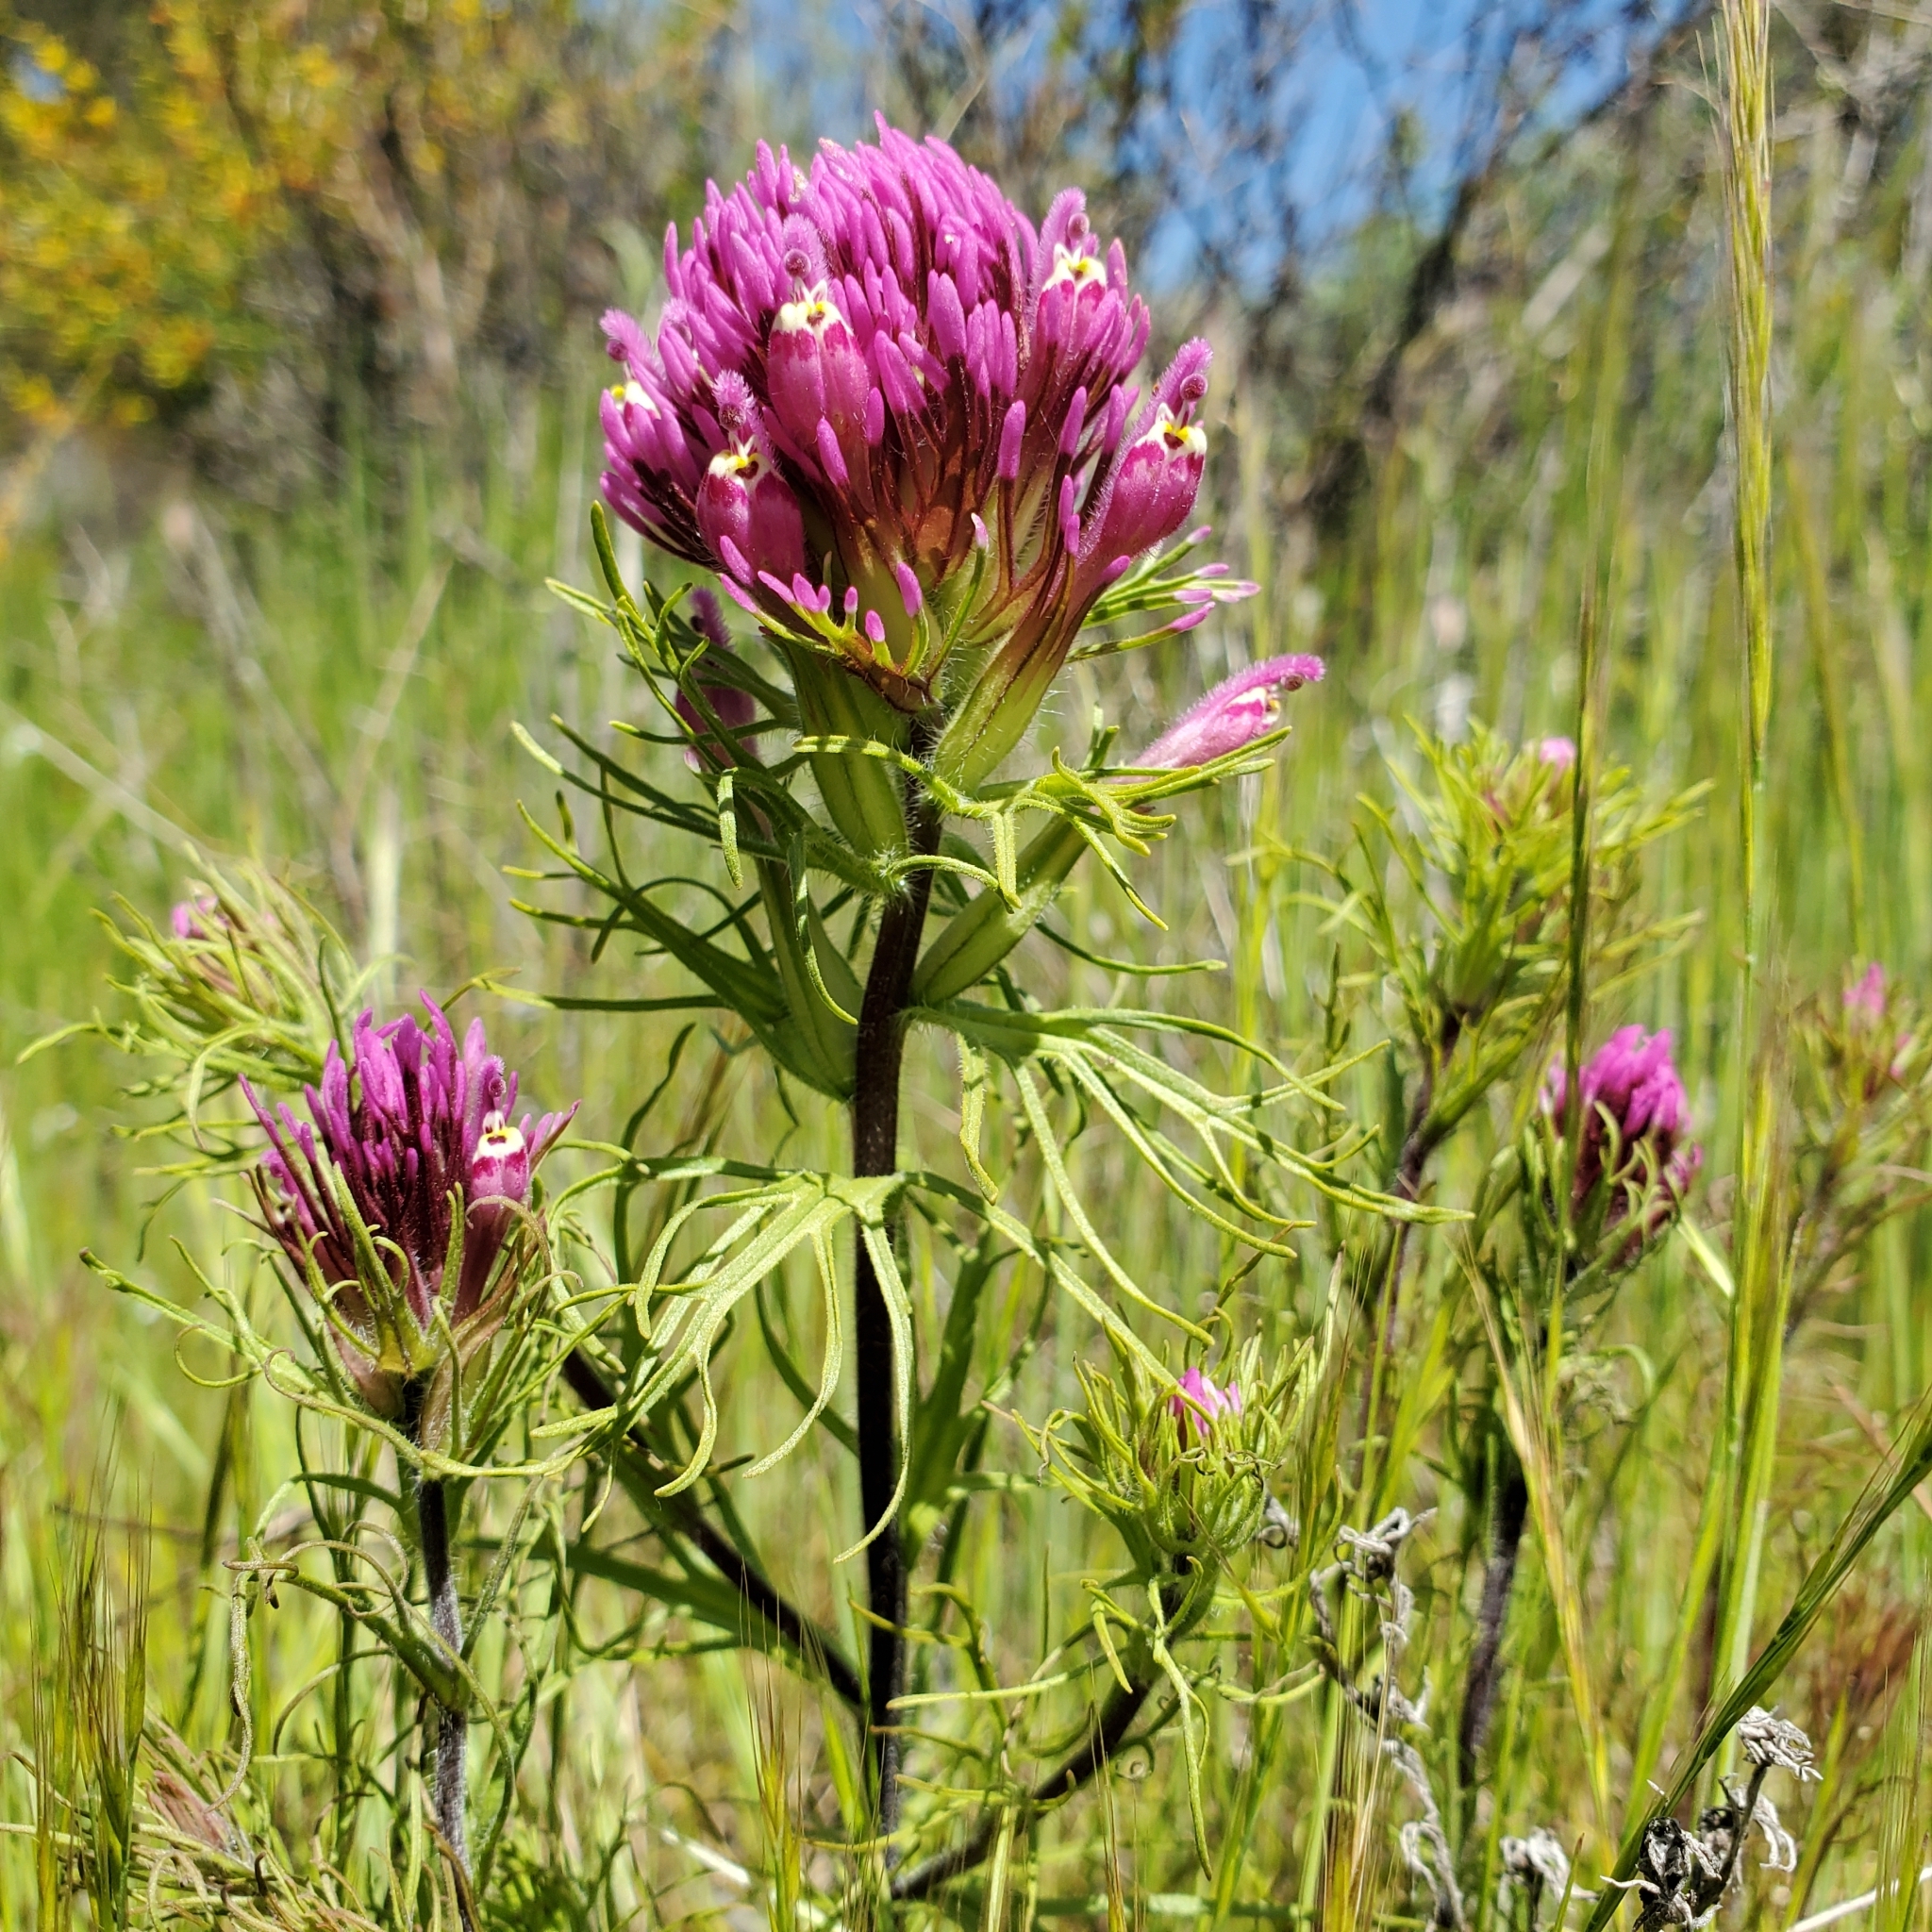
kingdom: Plantae
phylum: Tracheophyta
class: Magnoliopsida
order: Lamiales
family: Orobanchaceae
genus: Castilleja
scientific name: Castilleja exserta
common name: Purple owl-clover
